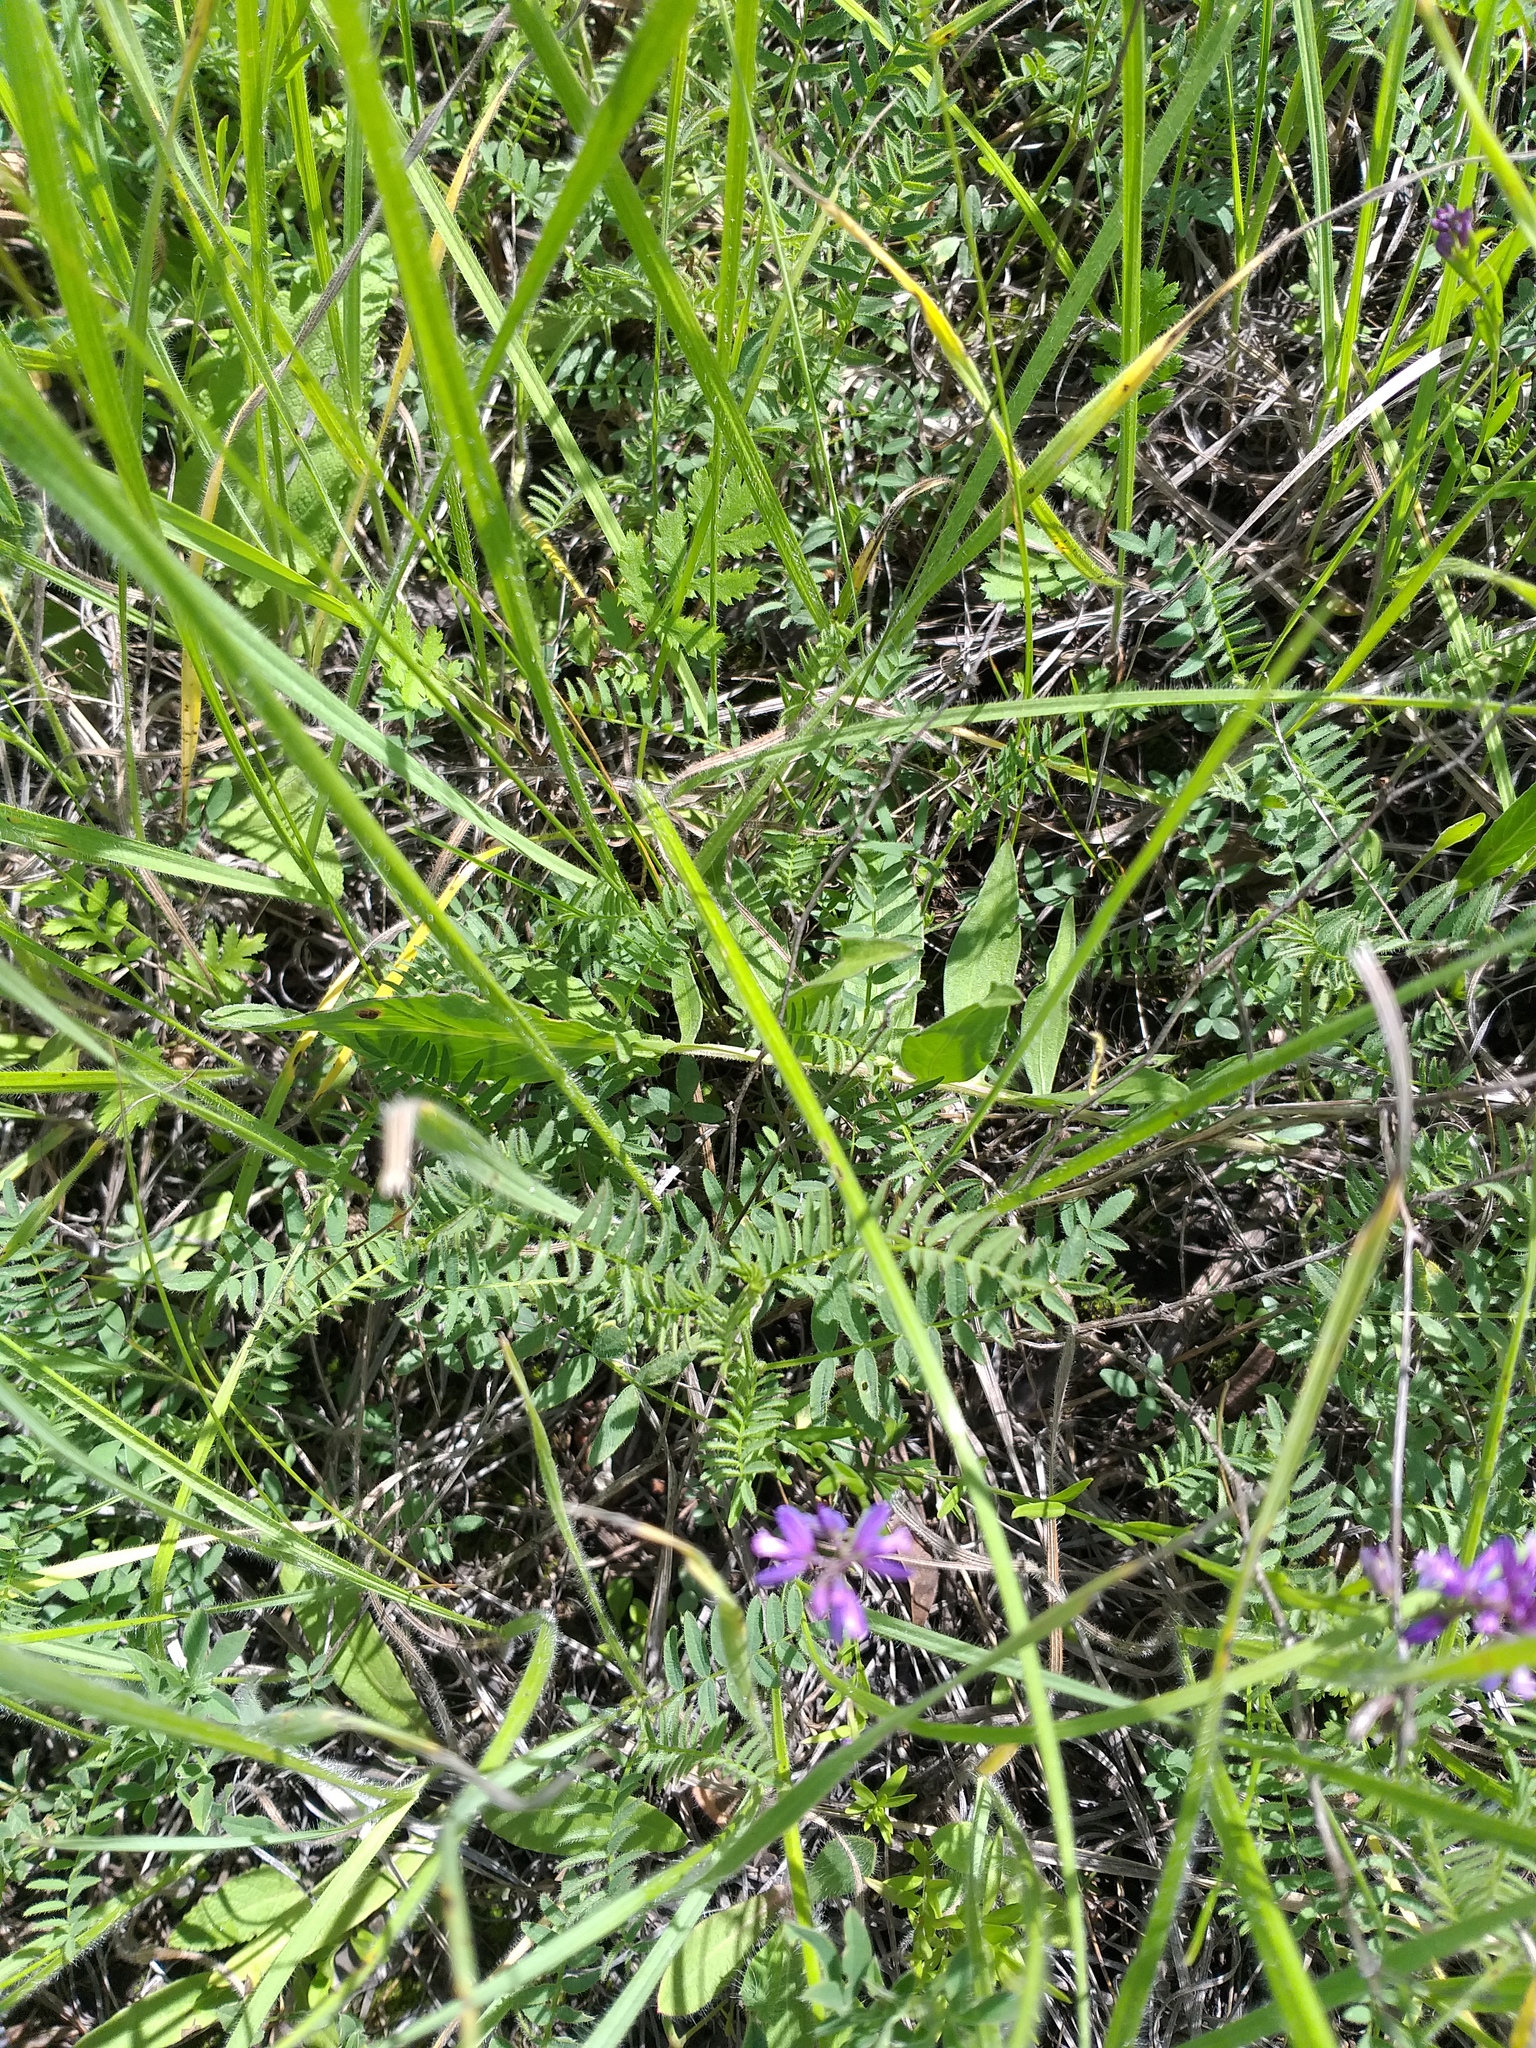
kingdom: Plantae
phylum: Tracheophyta
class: Magnoliopsida
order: Fabales
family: Fabaceae
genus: Astragalus
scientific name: Astragalus danicus
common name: Purple milk-vetch
